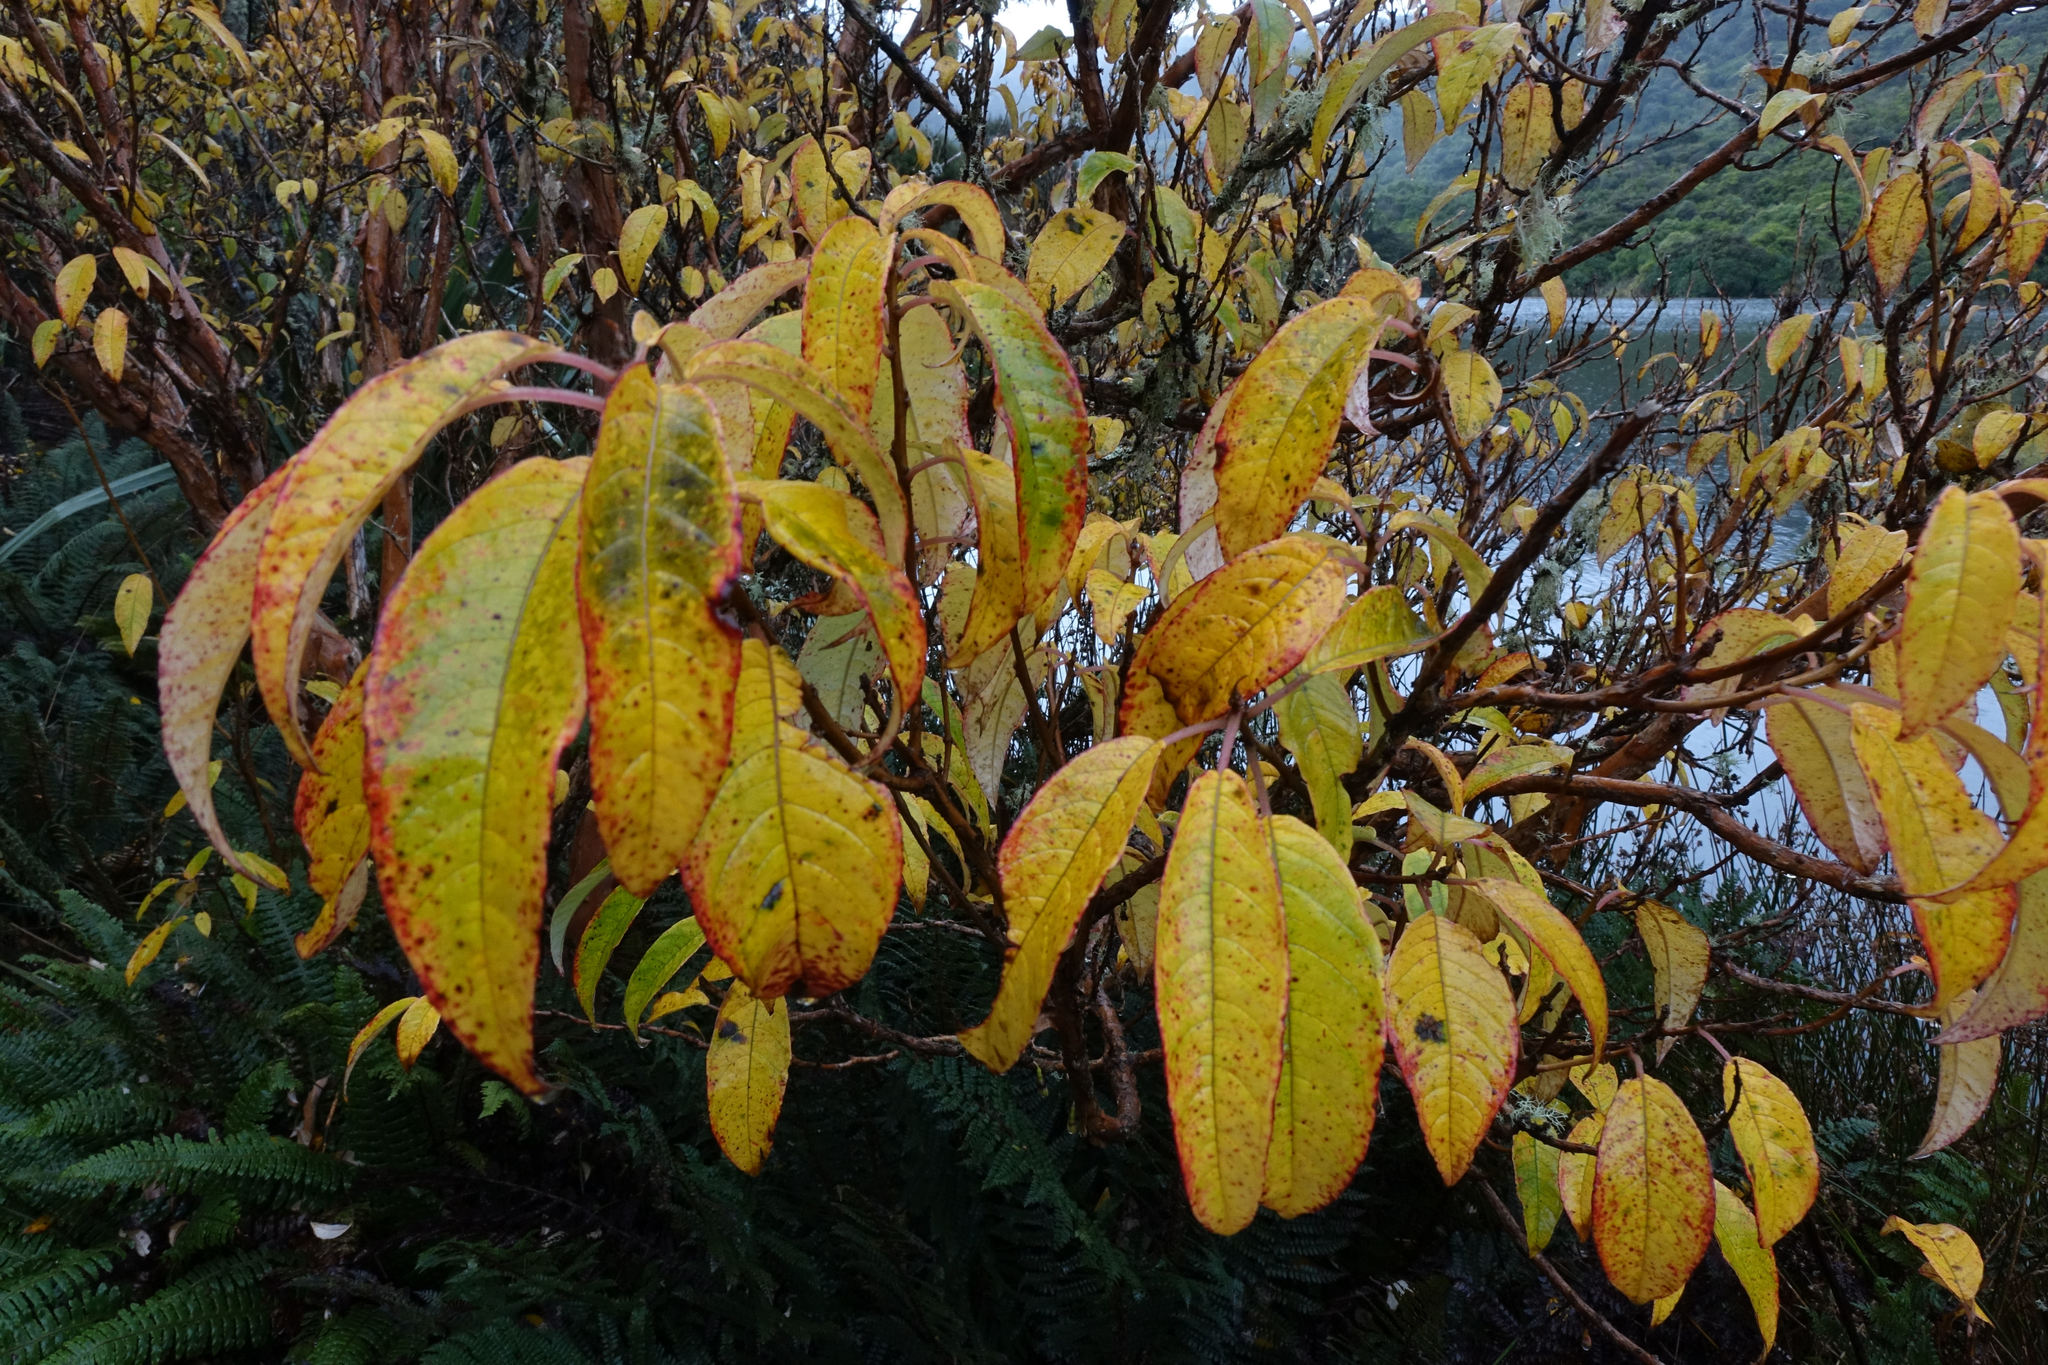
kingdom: Plantae
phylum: Tracheophyta
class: Magnoliopsida
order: Myrtales
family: Onagraceae
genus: Fuchsia
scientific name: Fuchsia excorticata
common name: Tree fuchsia
